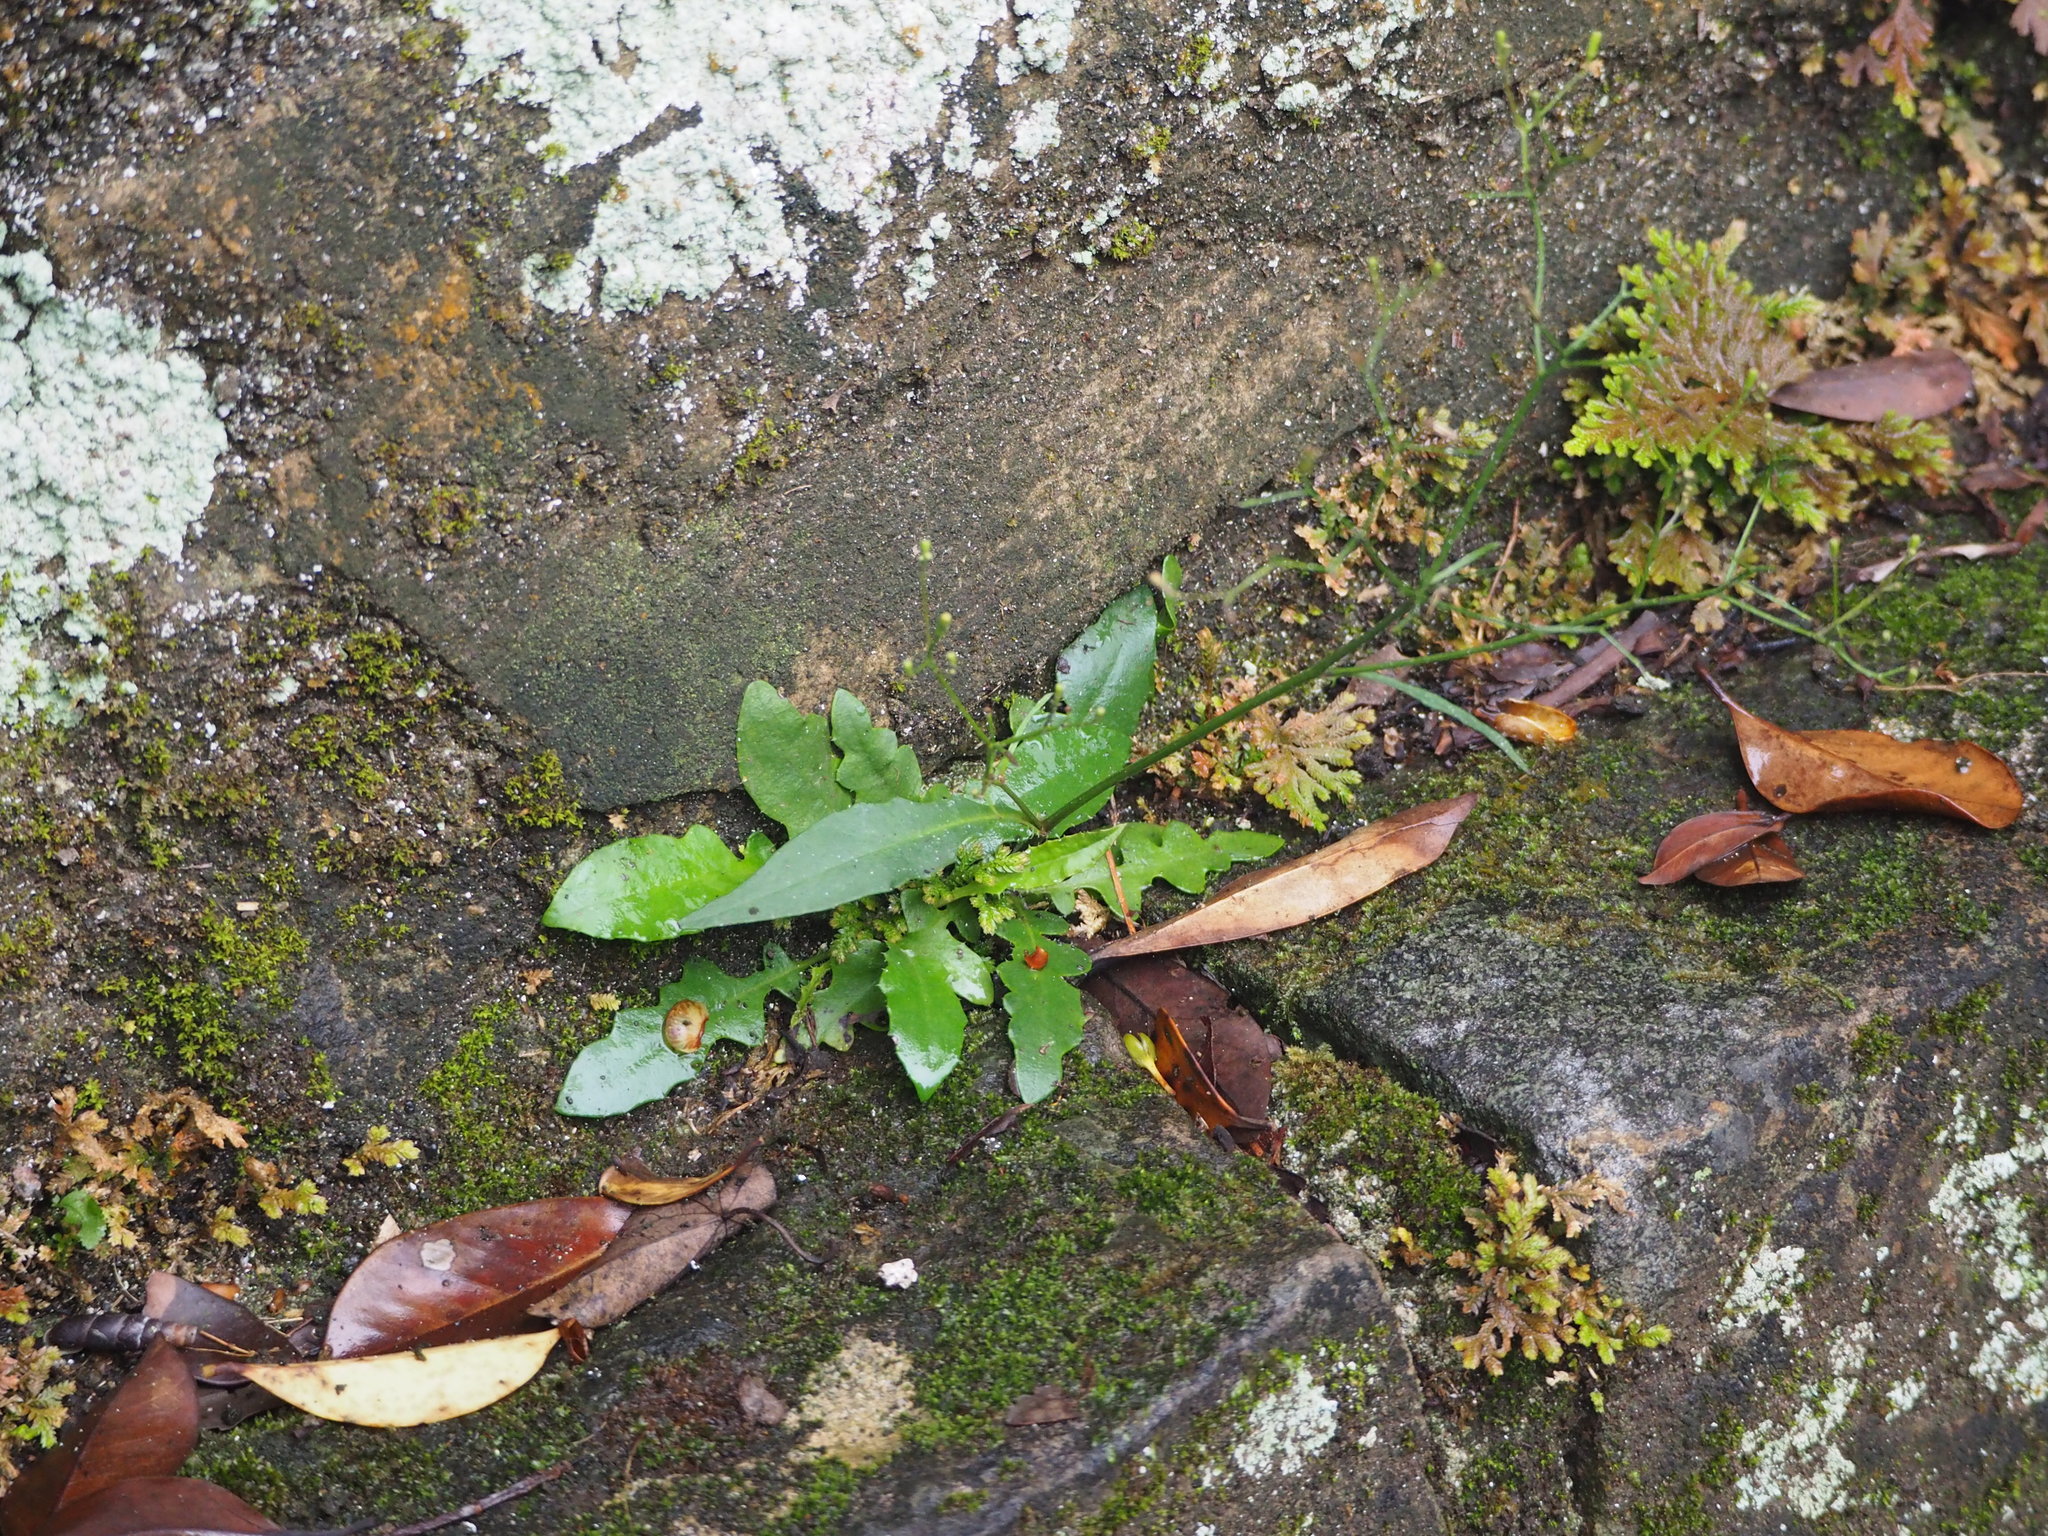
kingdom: Plantae
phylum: Tracheophyta
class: Magnoliopsida
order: Asterales
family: Asteraceae
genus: Ixeridium
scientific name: Ixeridium laevigatum
